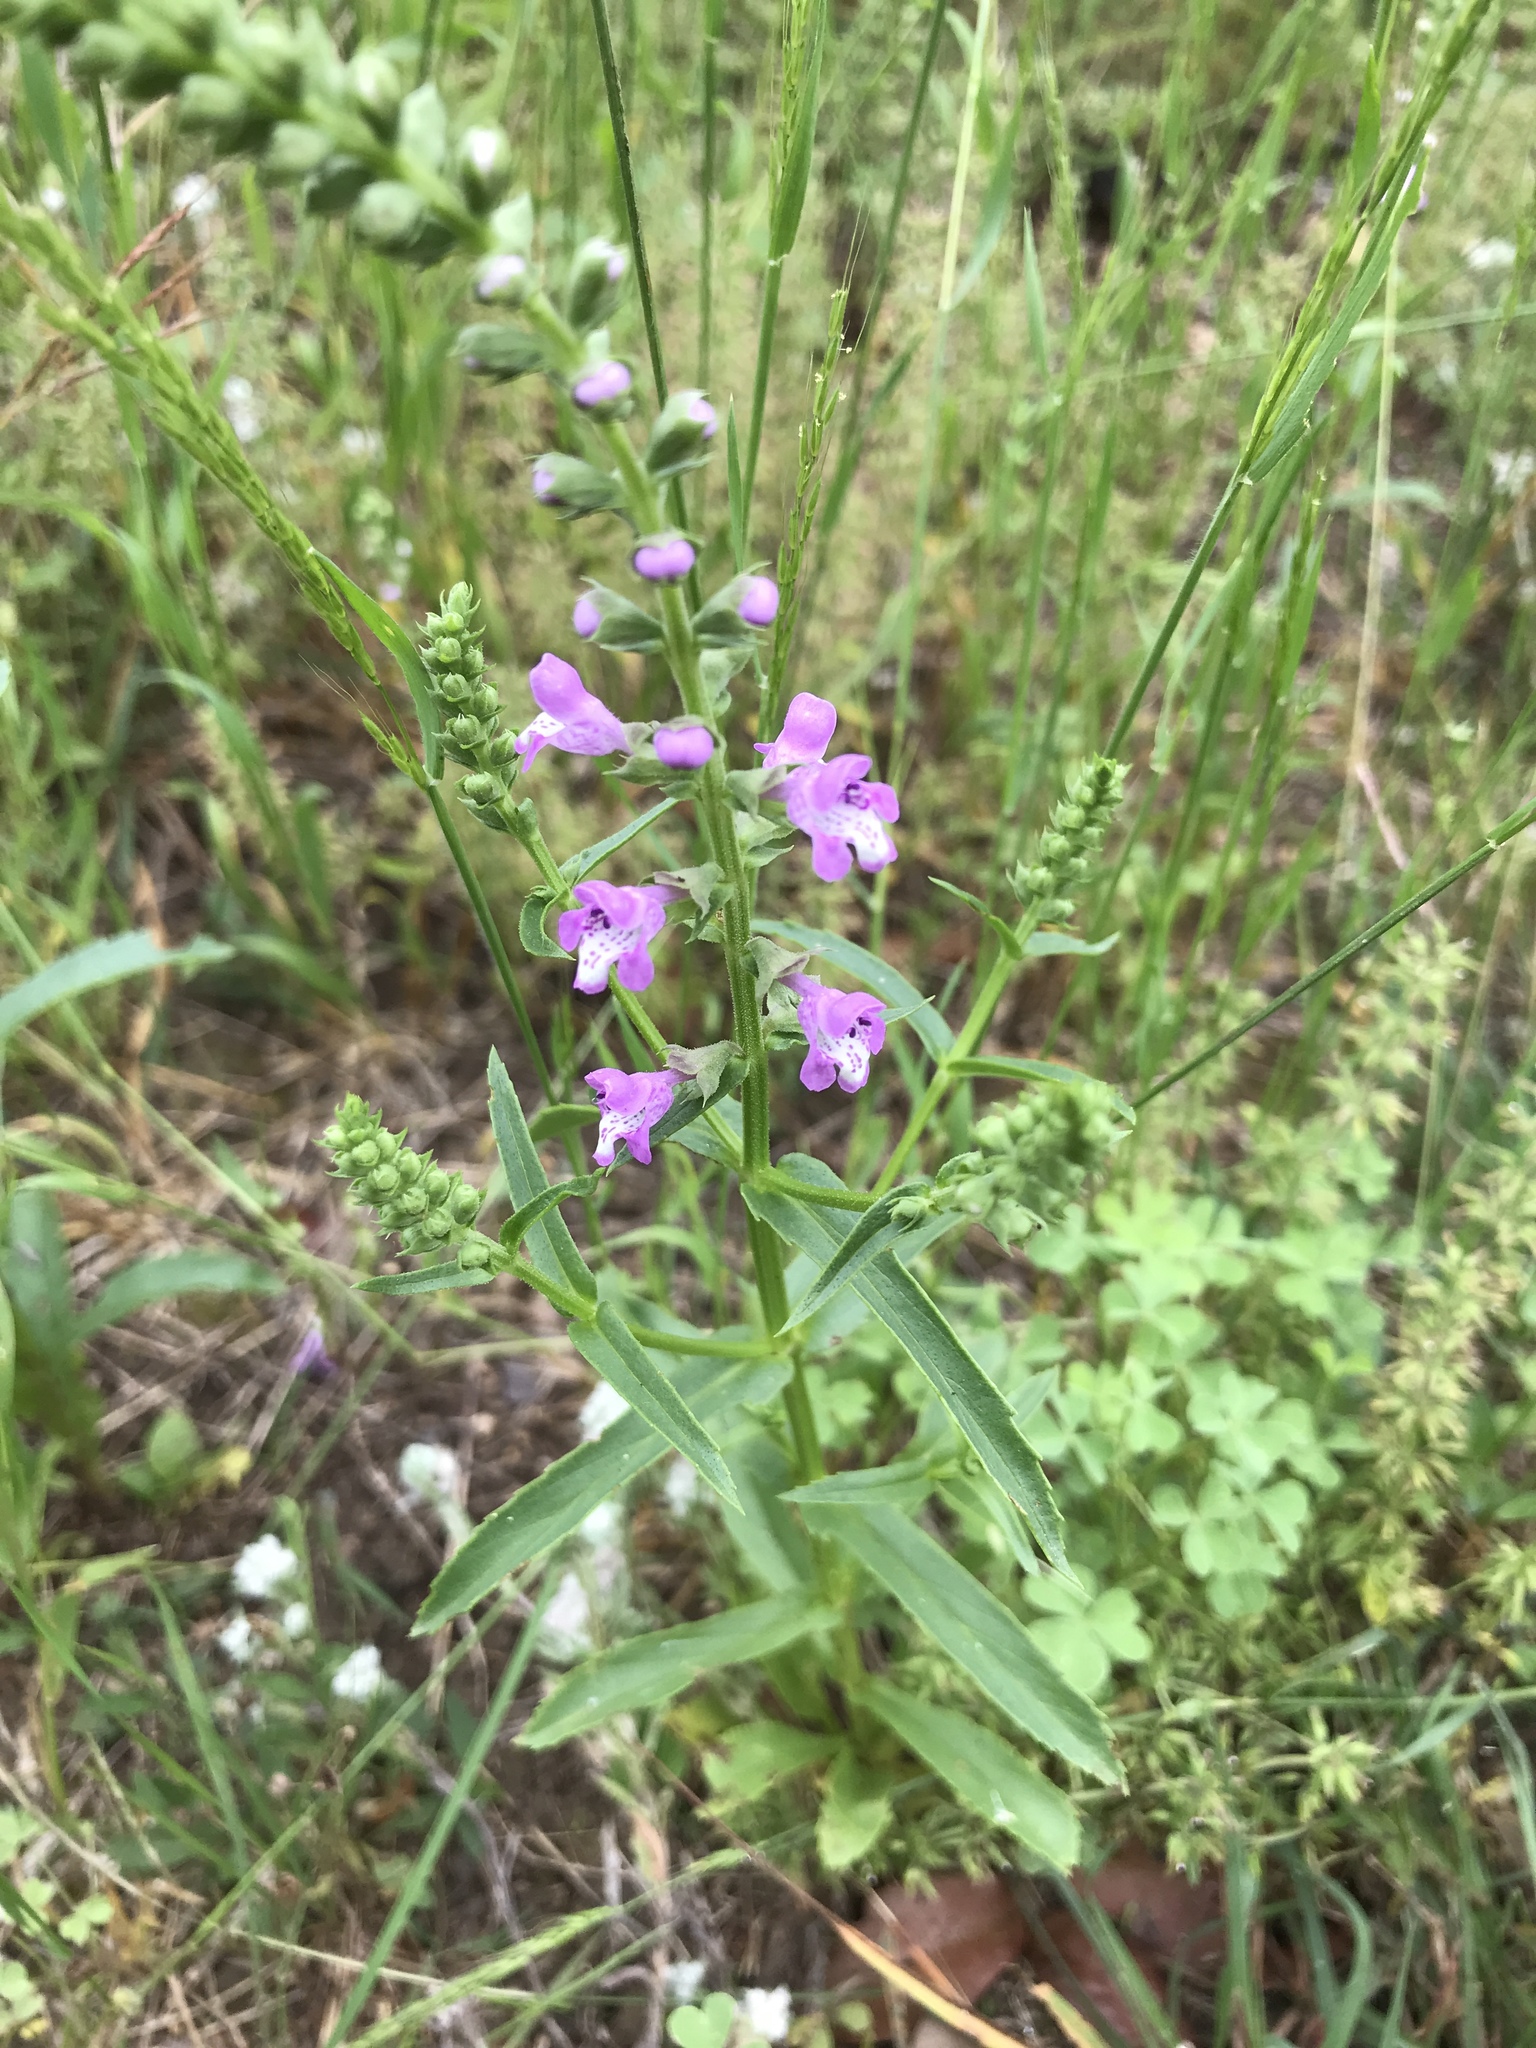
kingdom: Plantae
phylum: Tracheophyta
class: Magnoliopsida
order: Lamiales
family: Lamiaceae
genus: Warnockia
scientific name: Warnockia scutellarioides
